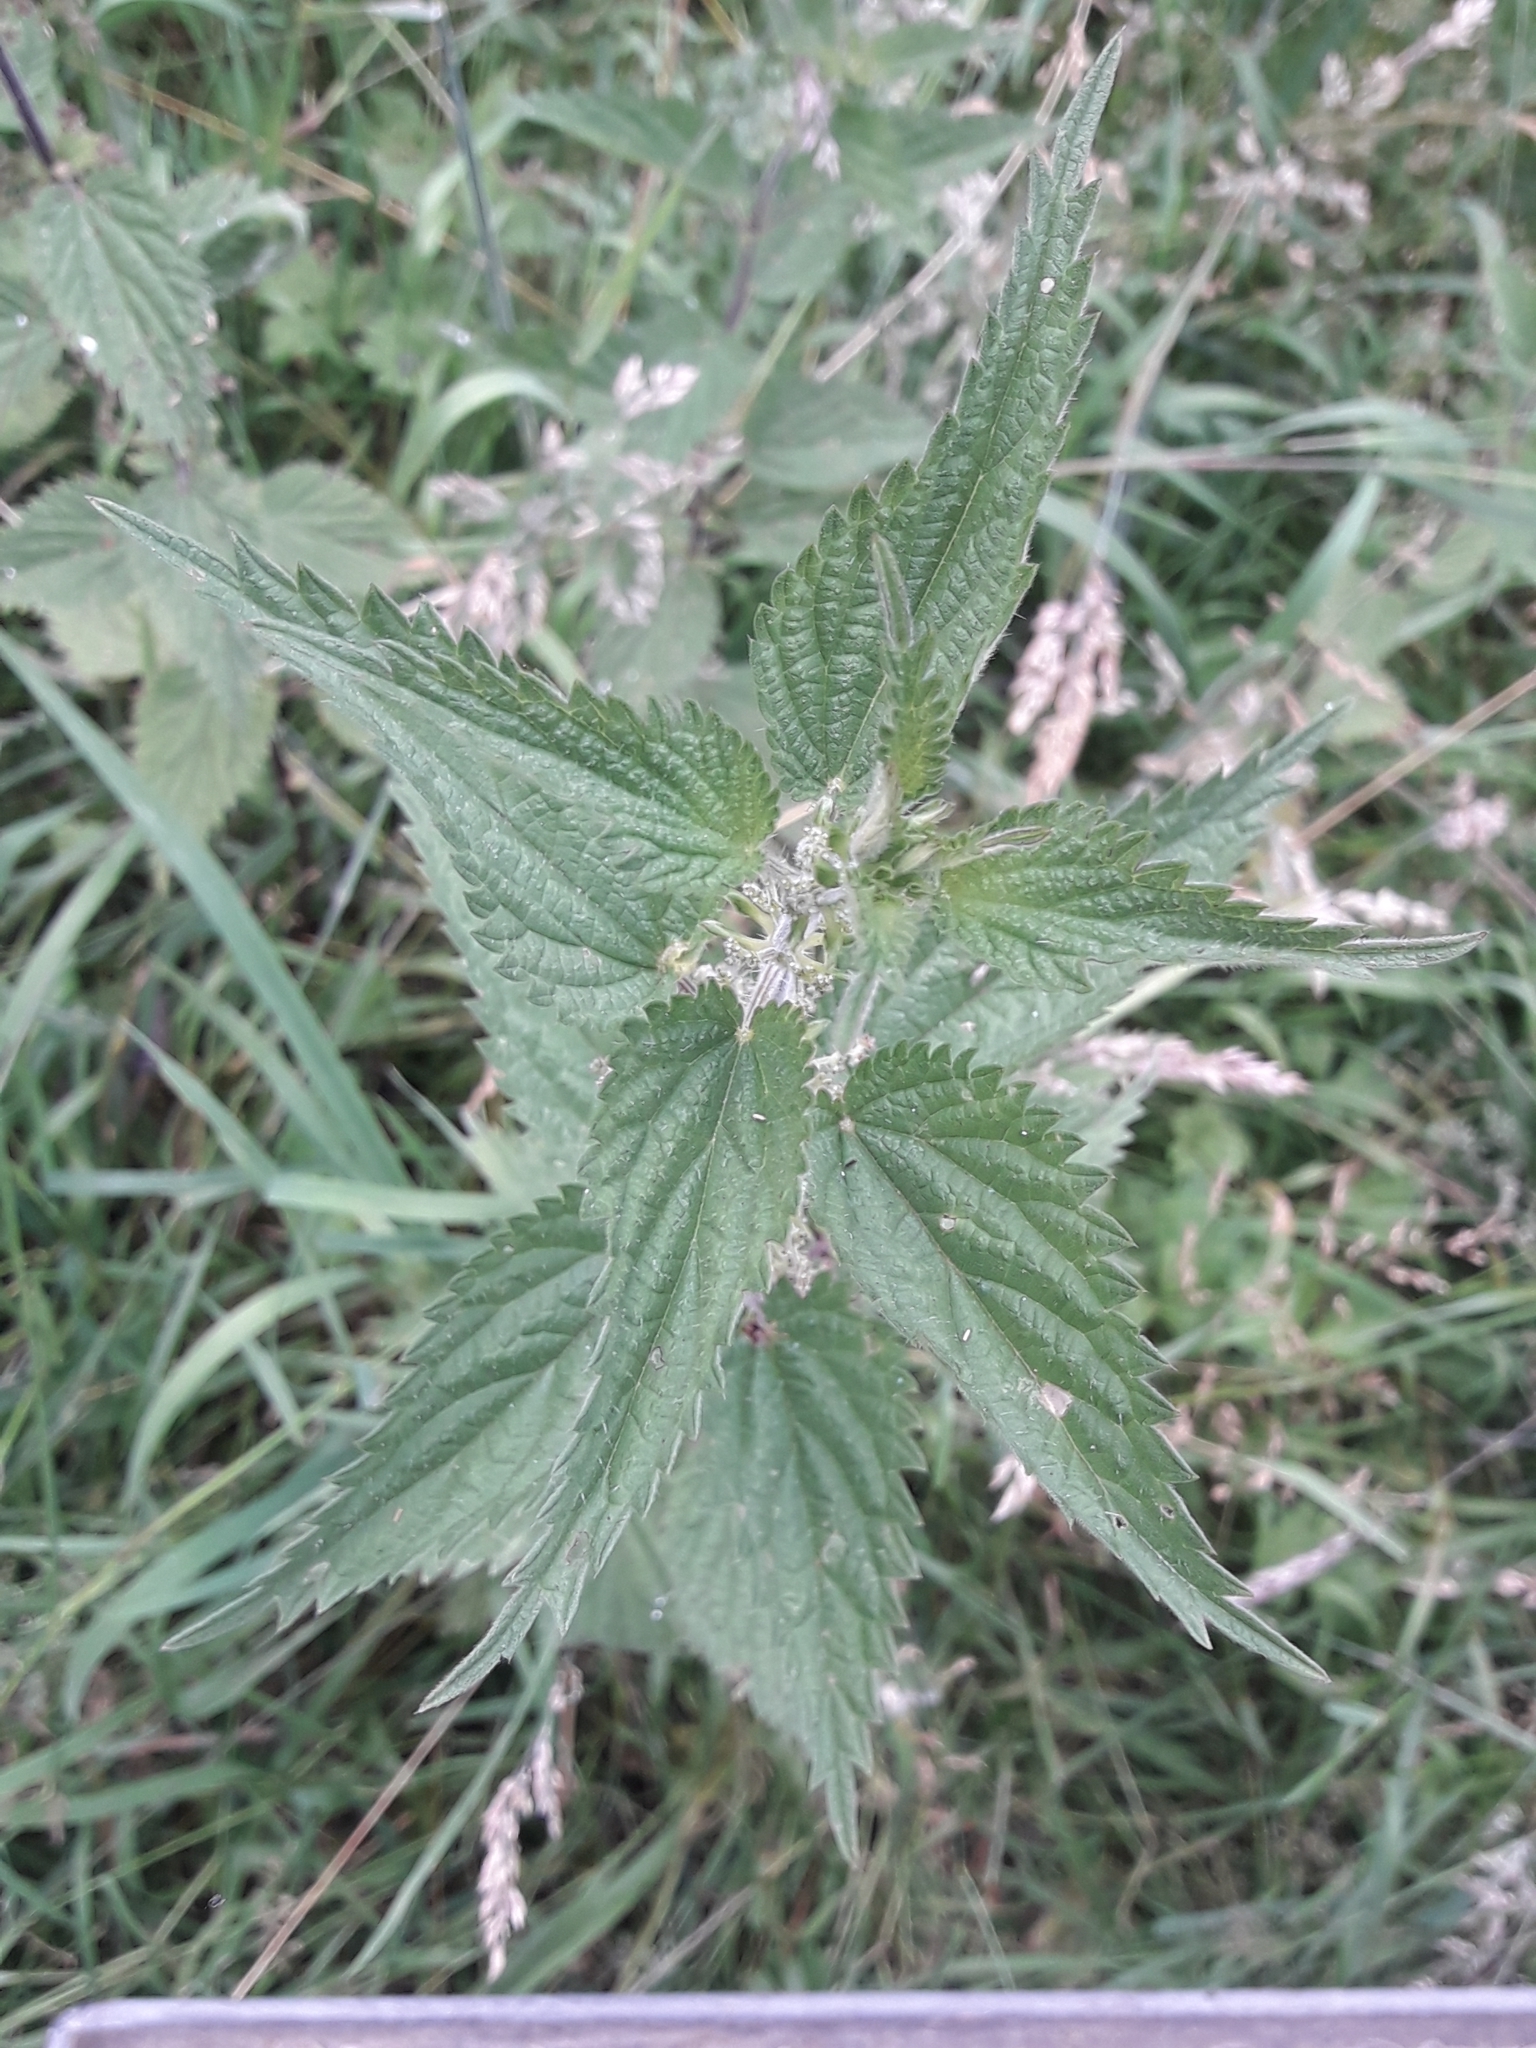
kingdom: Plantae
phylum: Tracheophyta
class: Magnoliopsida
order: Rosales
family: Urticaceae
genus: Urtica
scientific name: Urtica dioica
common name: Common nettle
